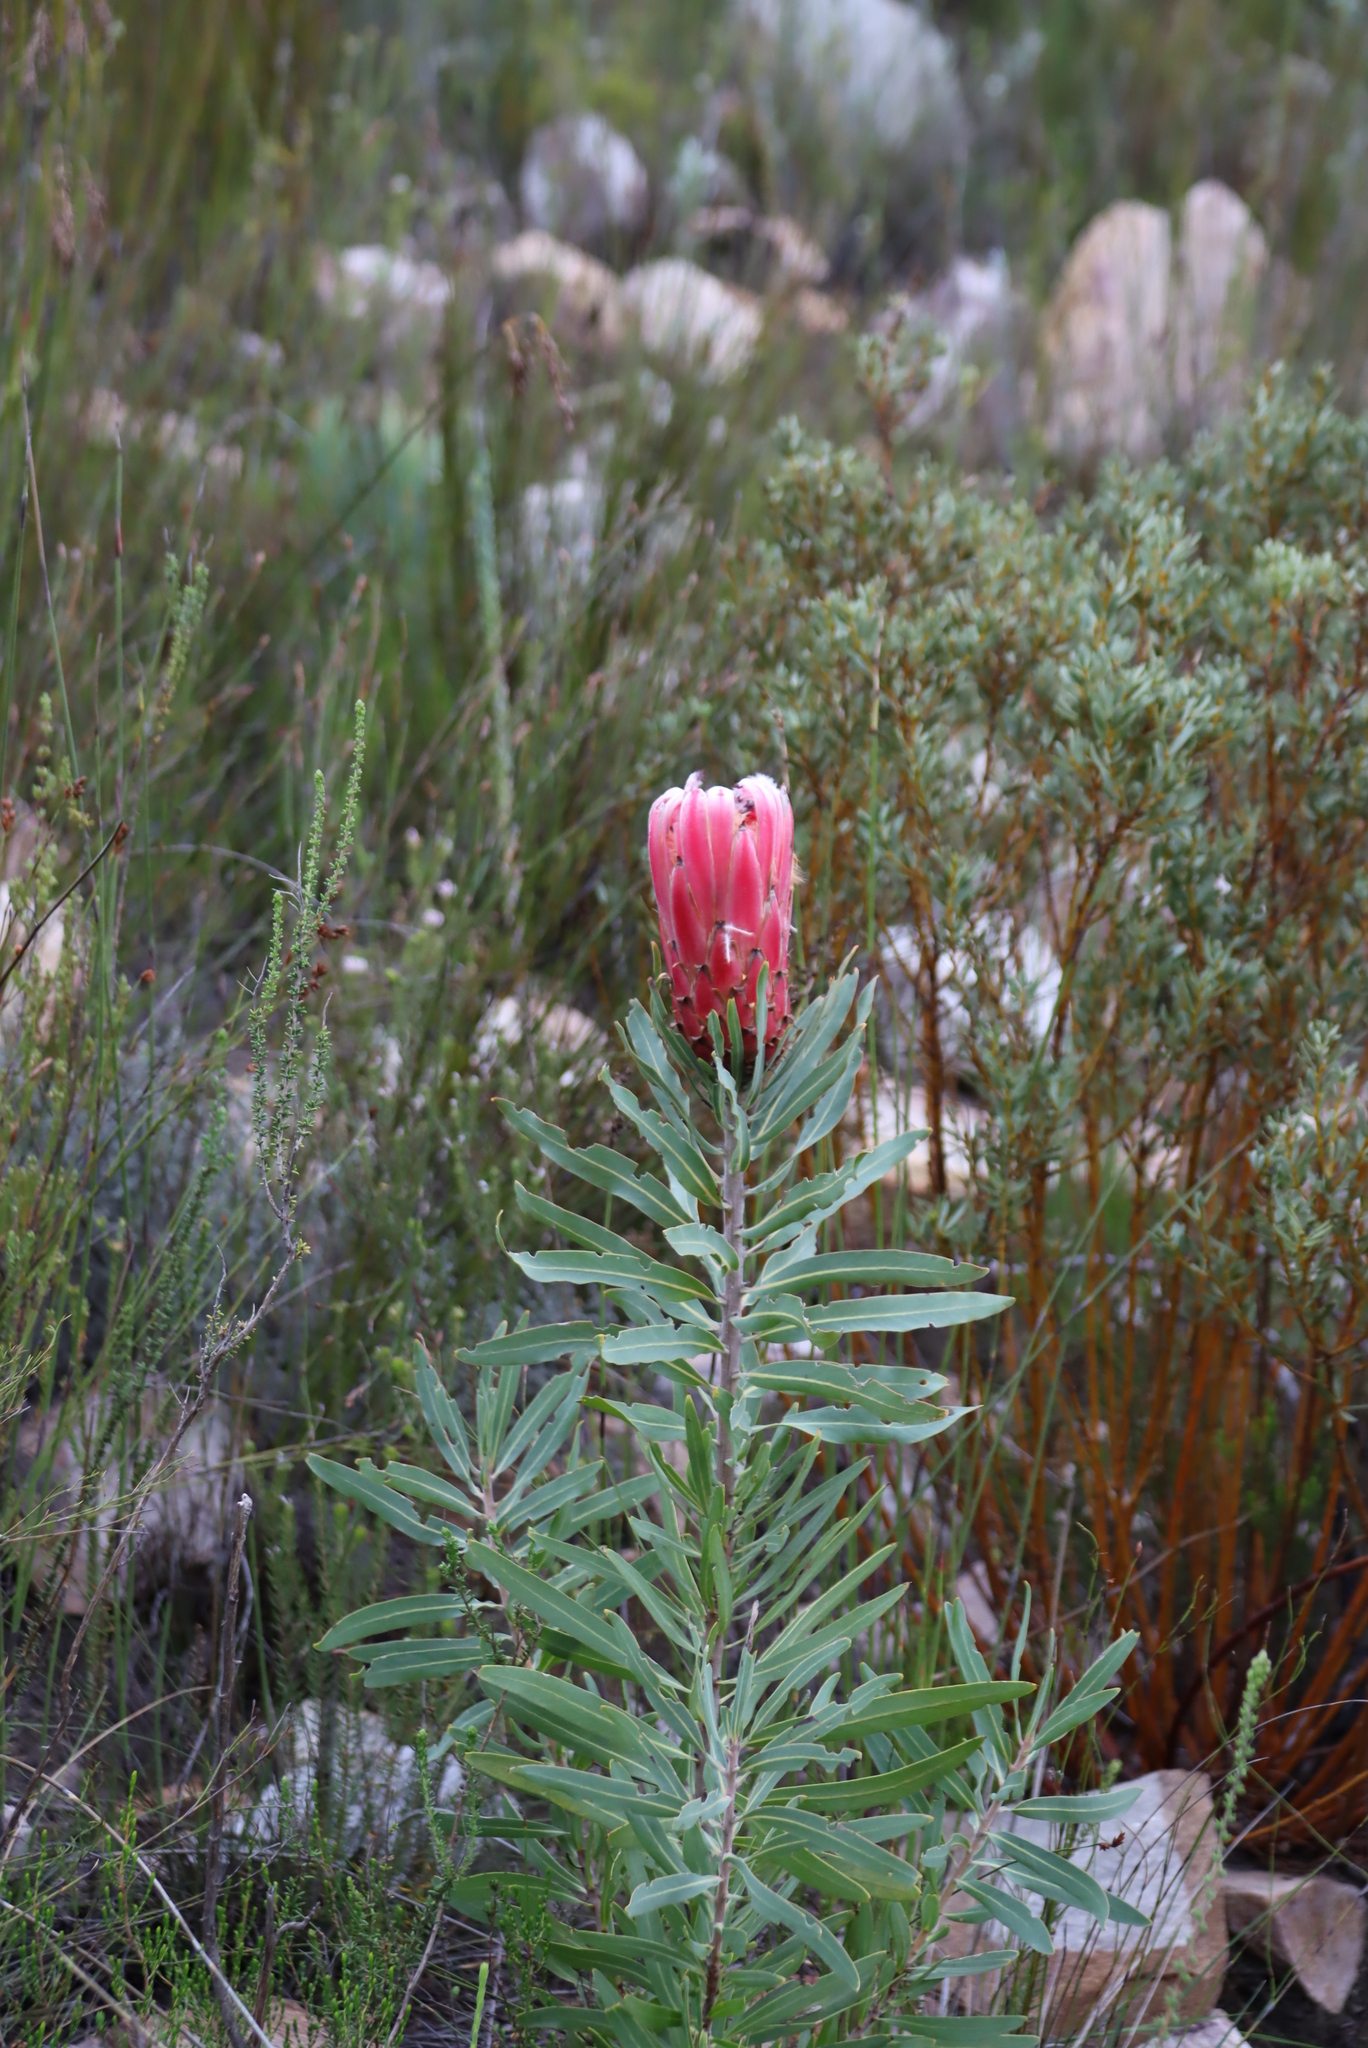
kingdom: Plantae
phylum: Tracheophyta
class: Magnoliopsida
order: Proteales
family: Proteaceae
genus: Protea
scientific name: Protea neriifolia
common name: Blue sugarbush
